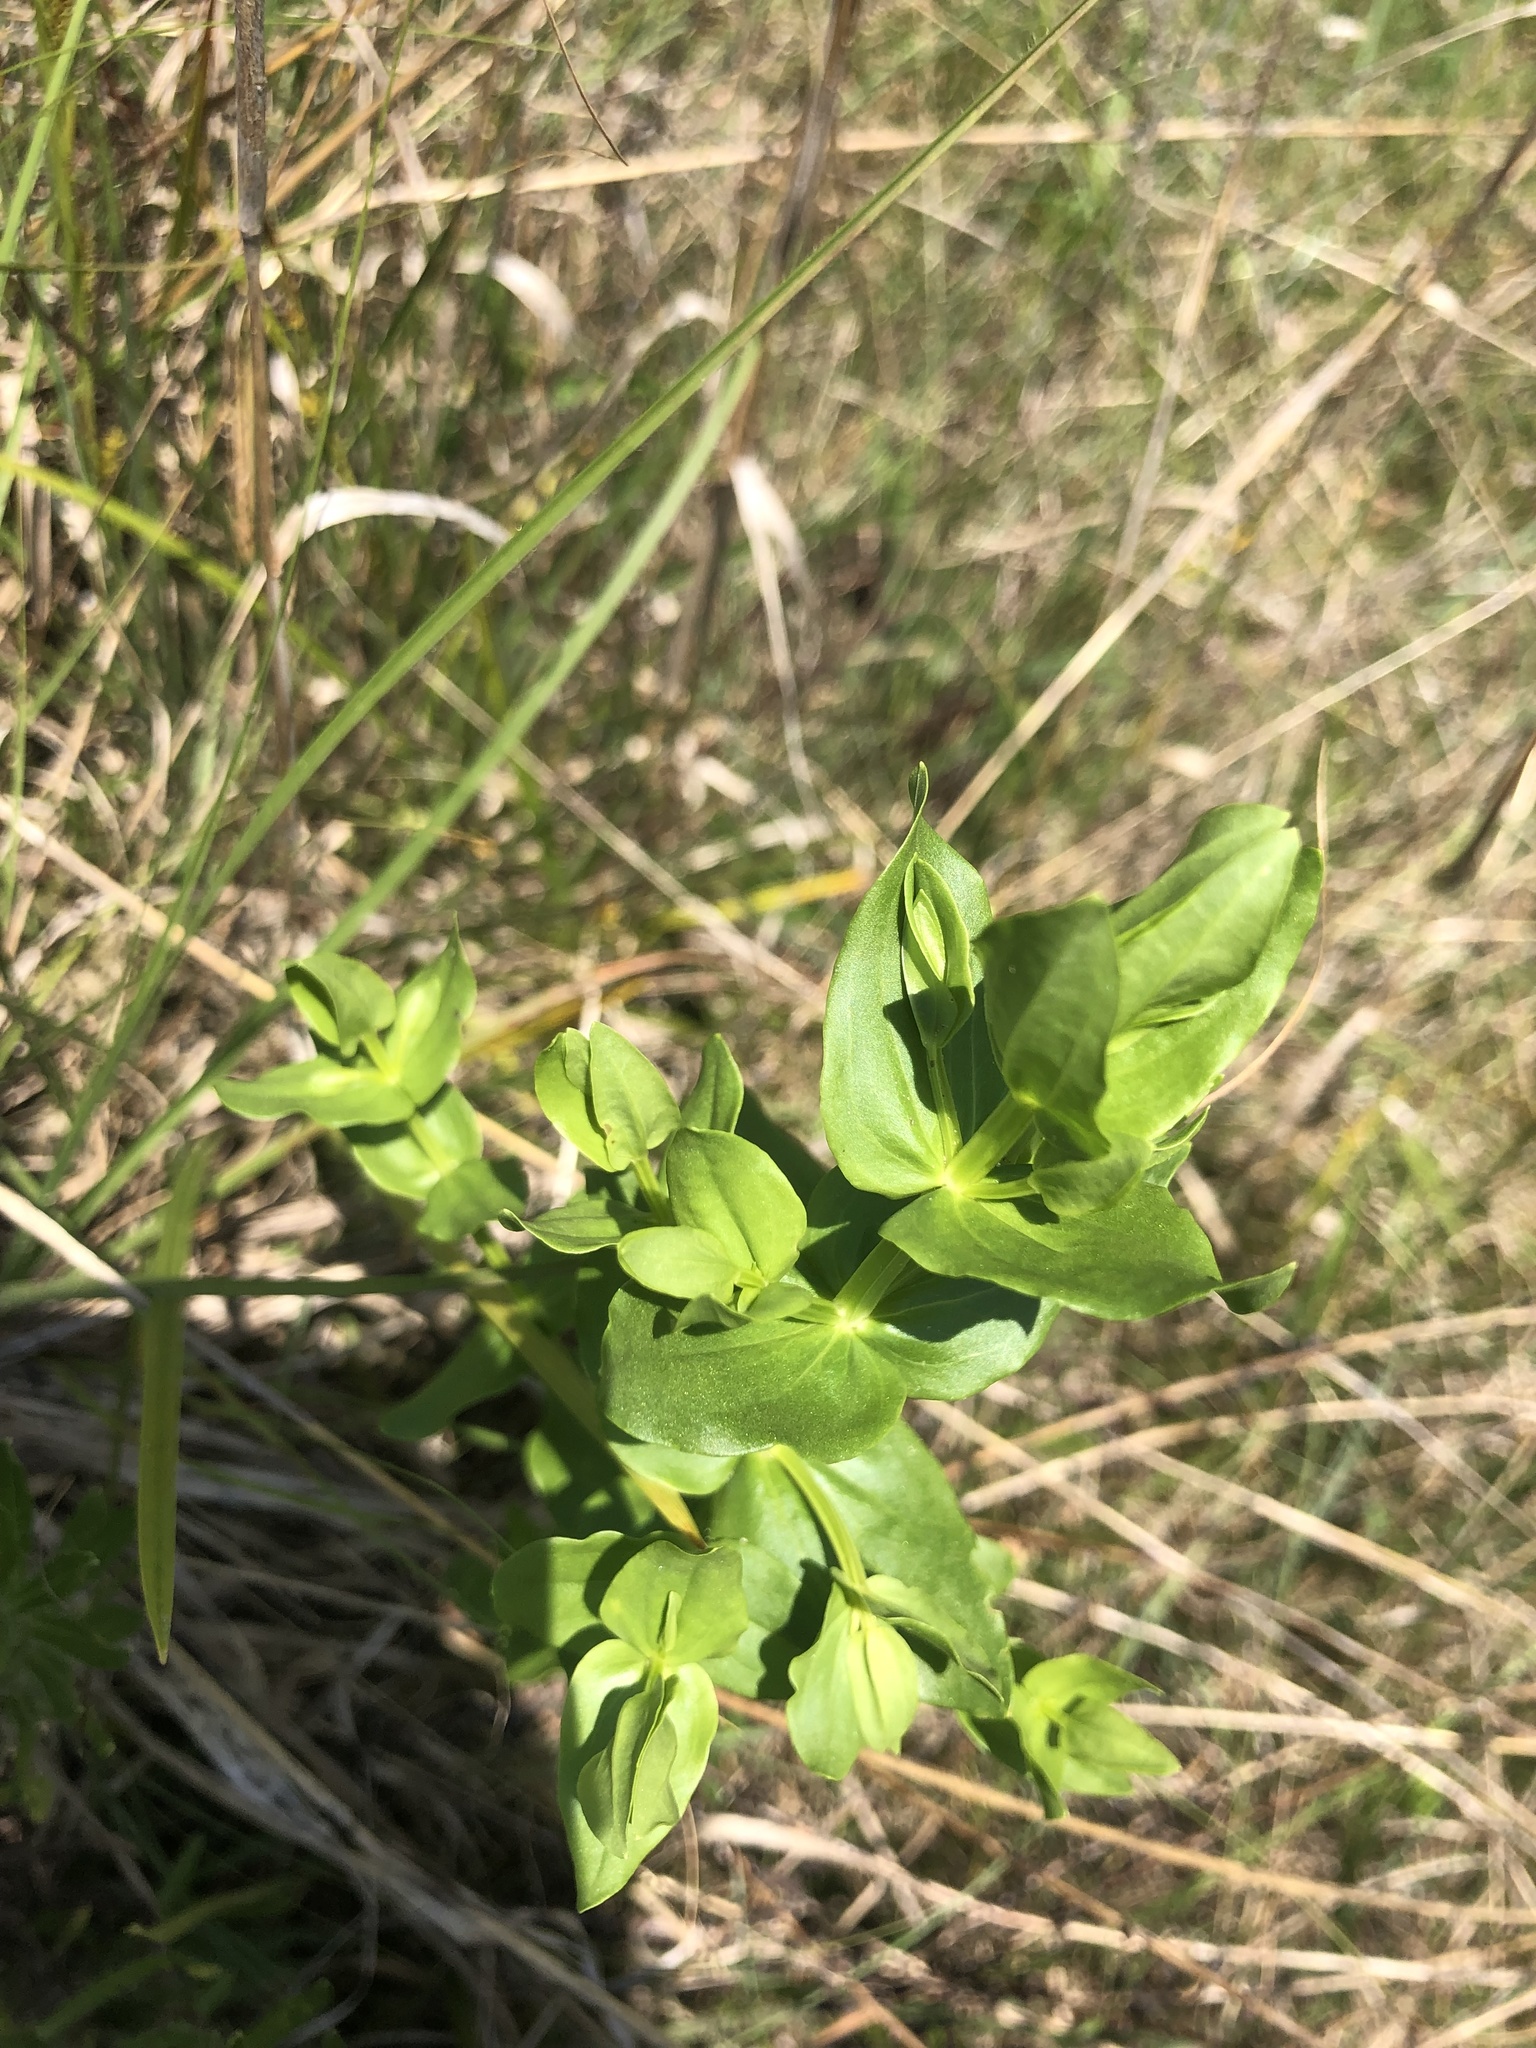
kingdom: Plantae
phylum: Tracheophyta
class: Magnoliopsida
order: Gentianales
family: Gentianaceae
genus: Sabatia
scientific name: Sabatia angularis
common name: Rose-pink
